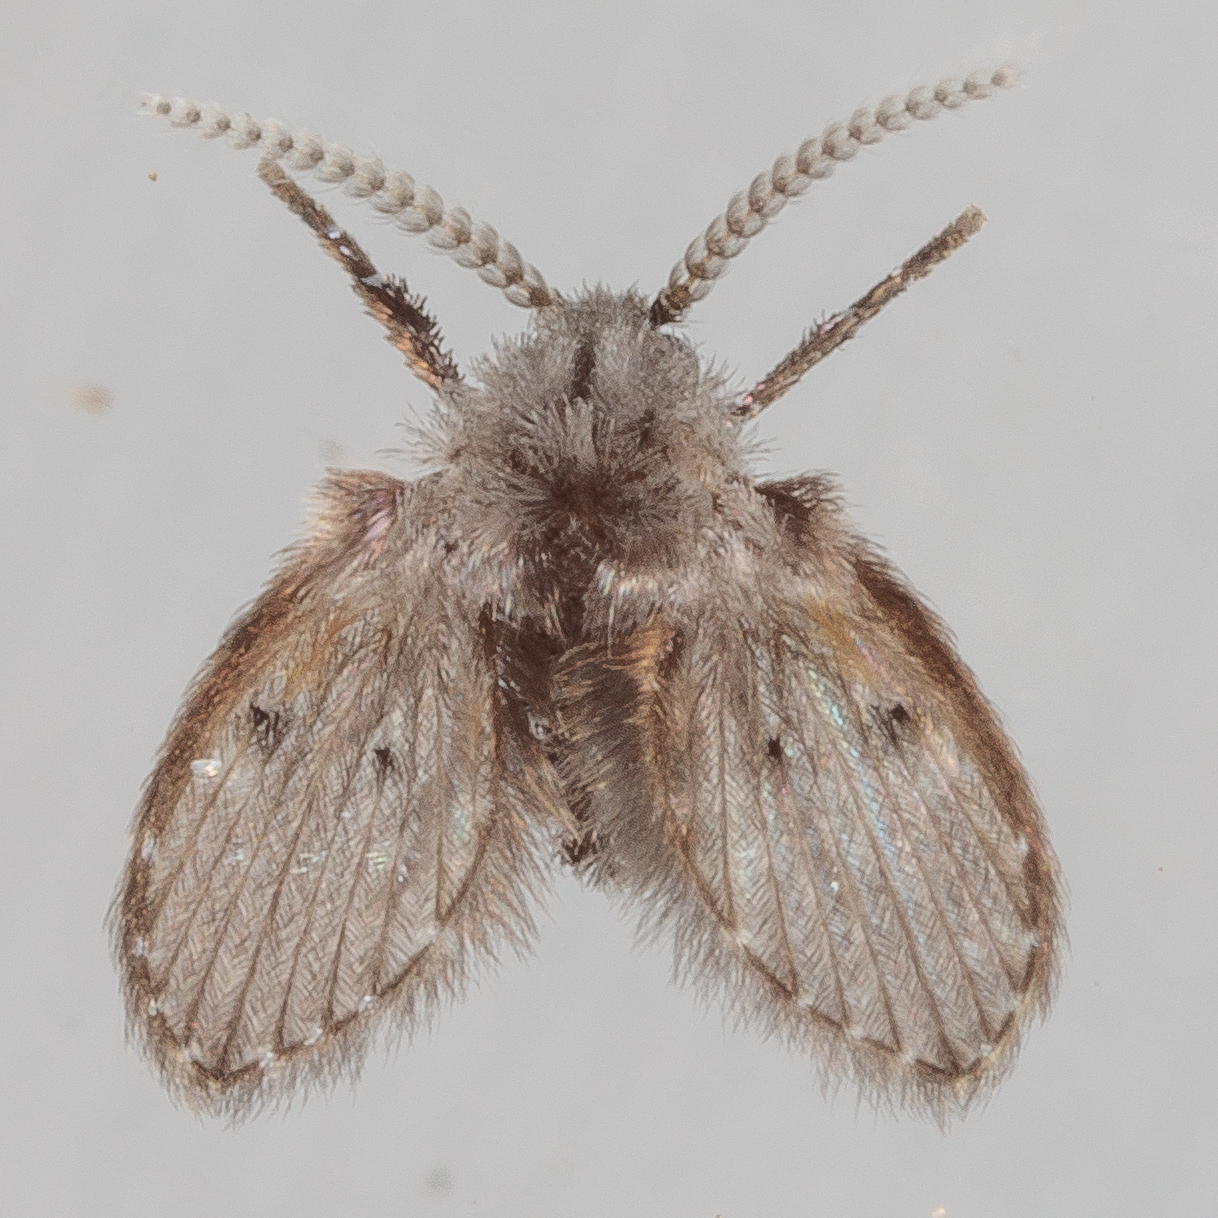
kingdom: Animalia
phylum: Arthropoda
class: Insecta
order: Diptera
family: Psychodidae
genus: Clogmia
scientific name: Clogmia albipunctatus
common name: White-spotted moth fly
